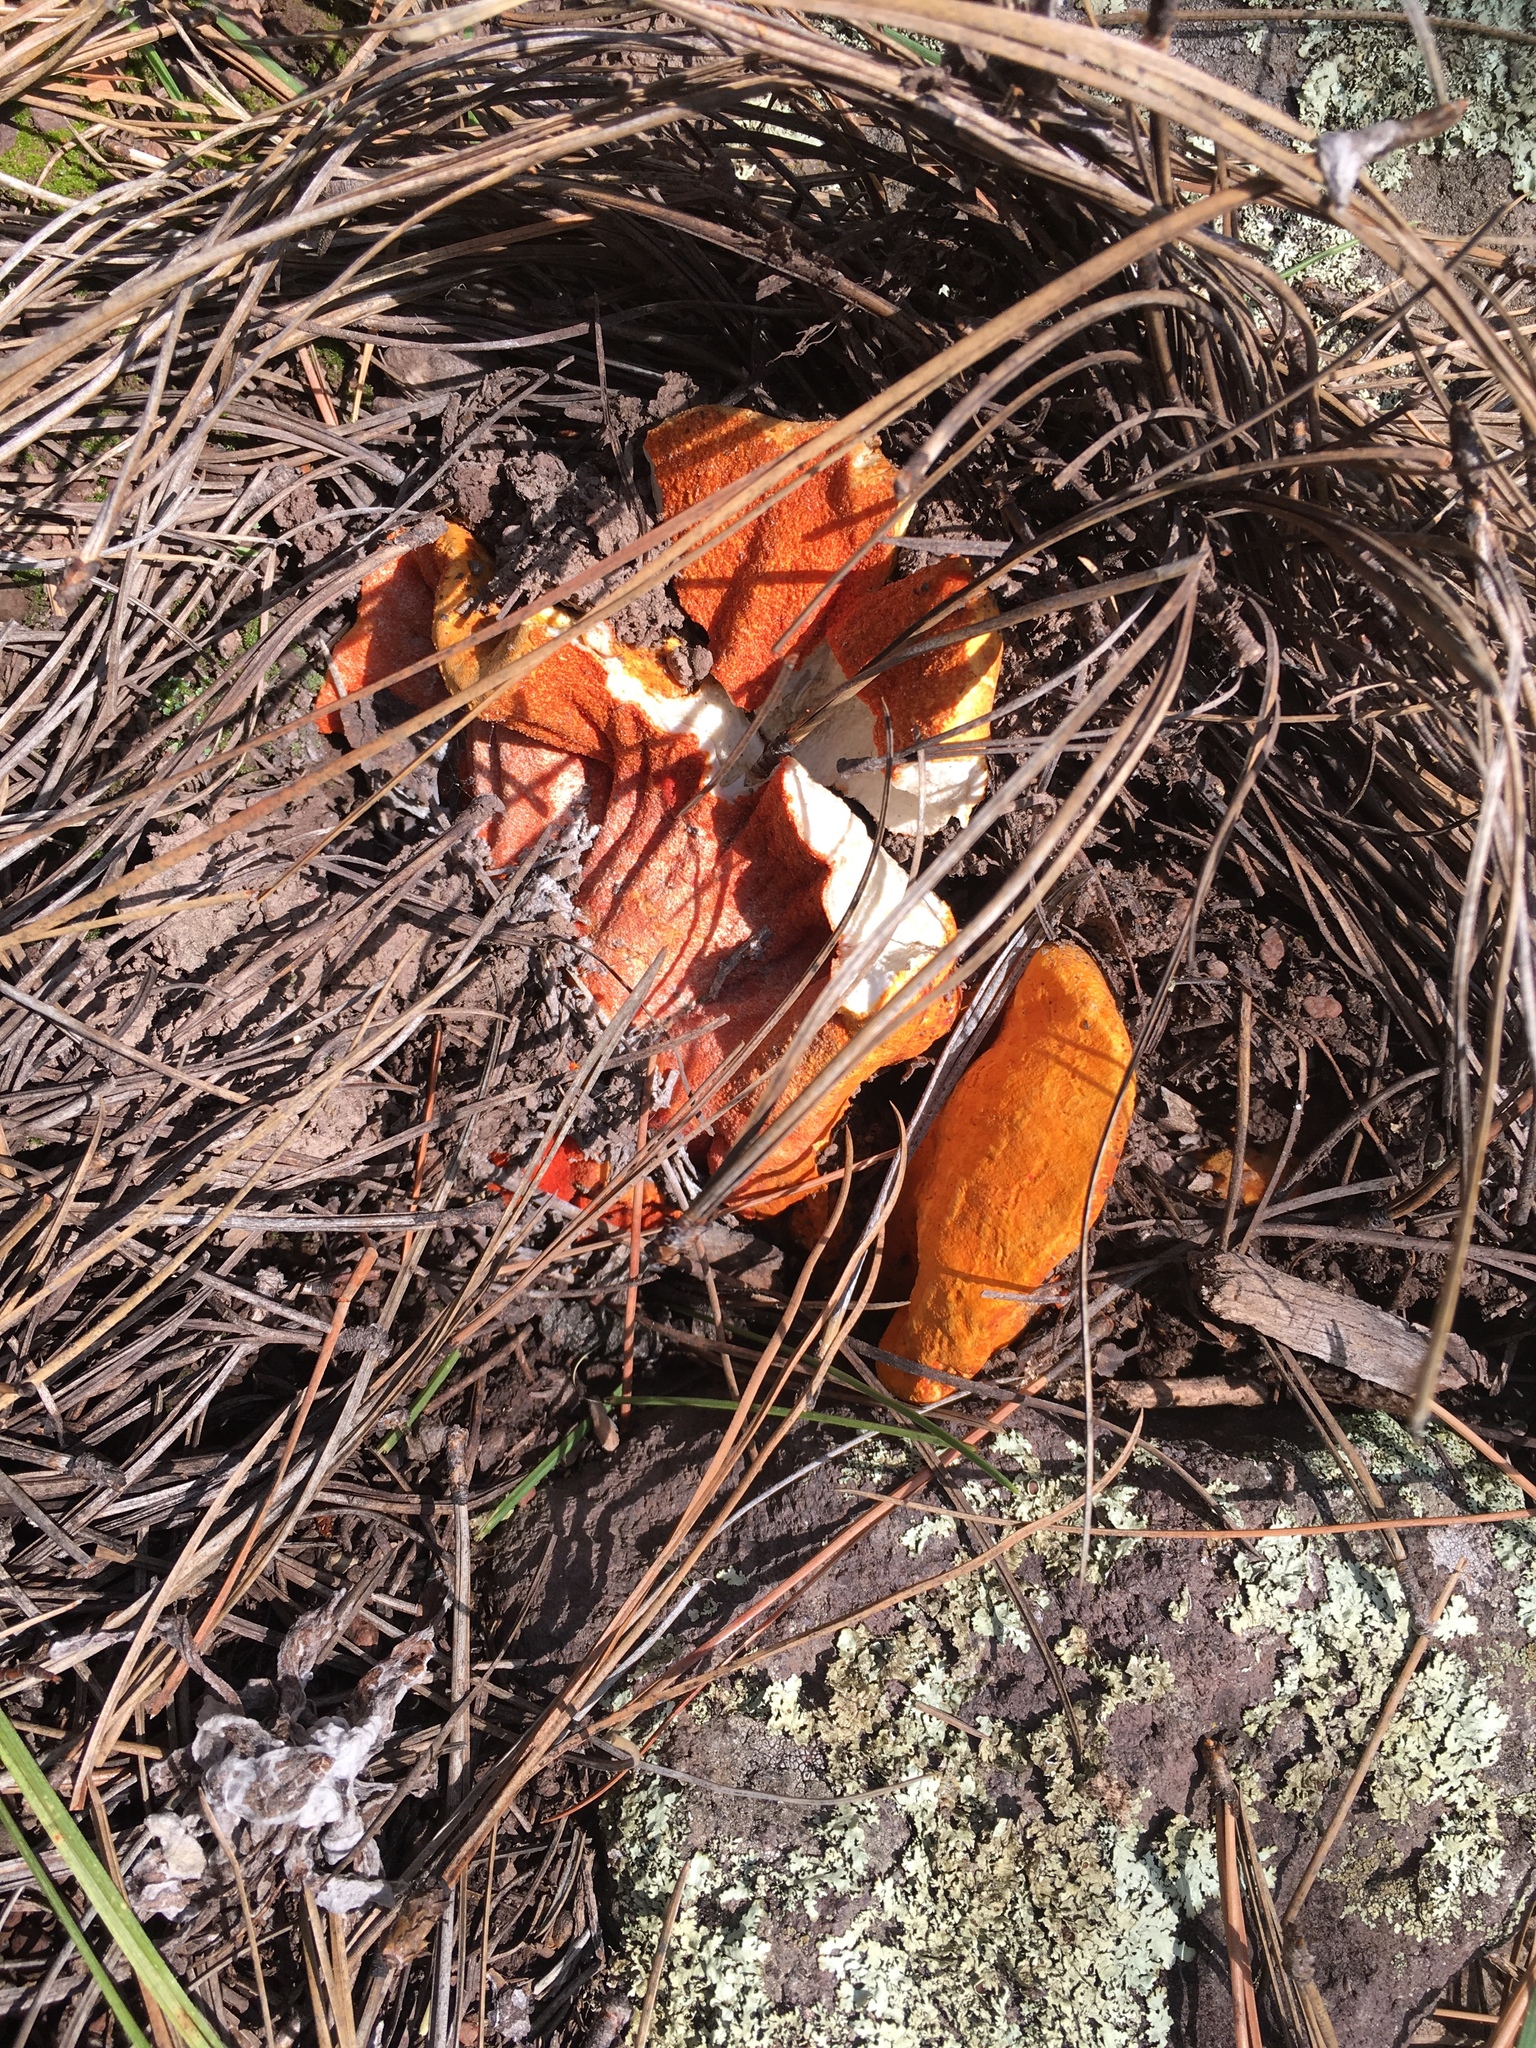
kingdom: Fungi
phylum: Ascomycota
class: Sordariomycetes
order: Hypocreales
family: Hypocreaceae
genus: Hypomyces
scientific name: Hypomyces lactifluorum
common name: Lobster mushroom
